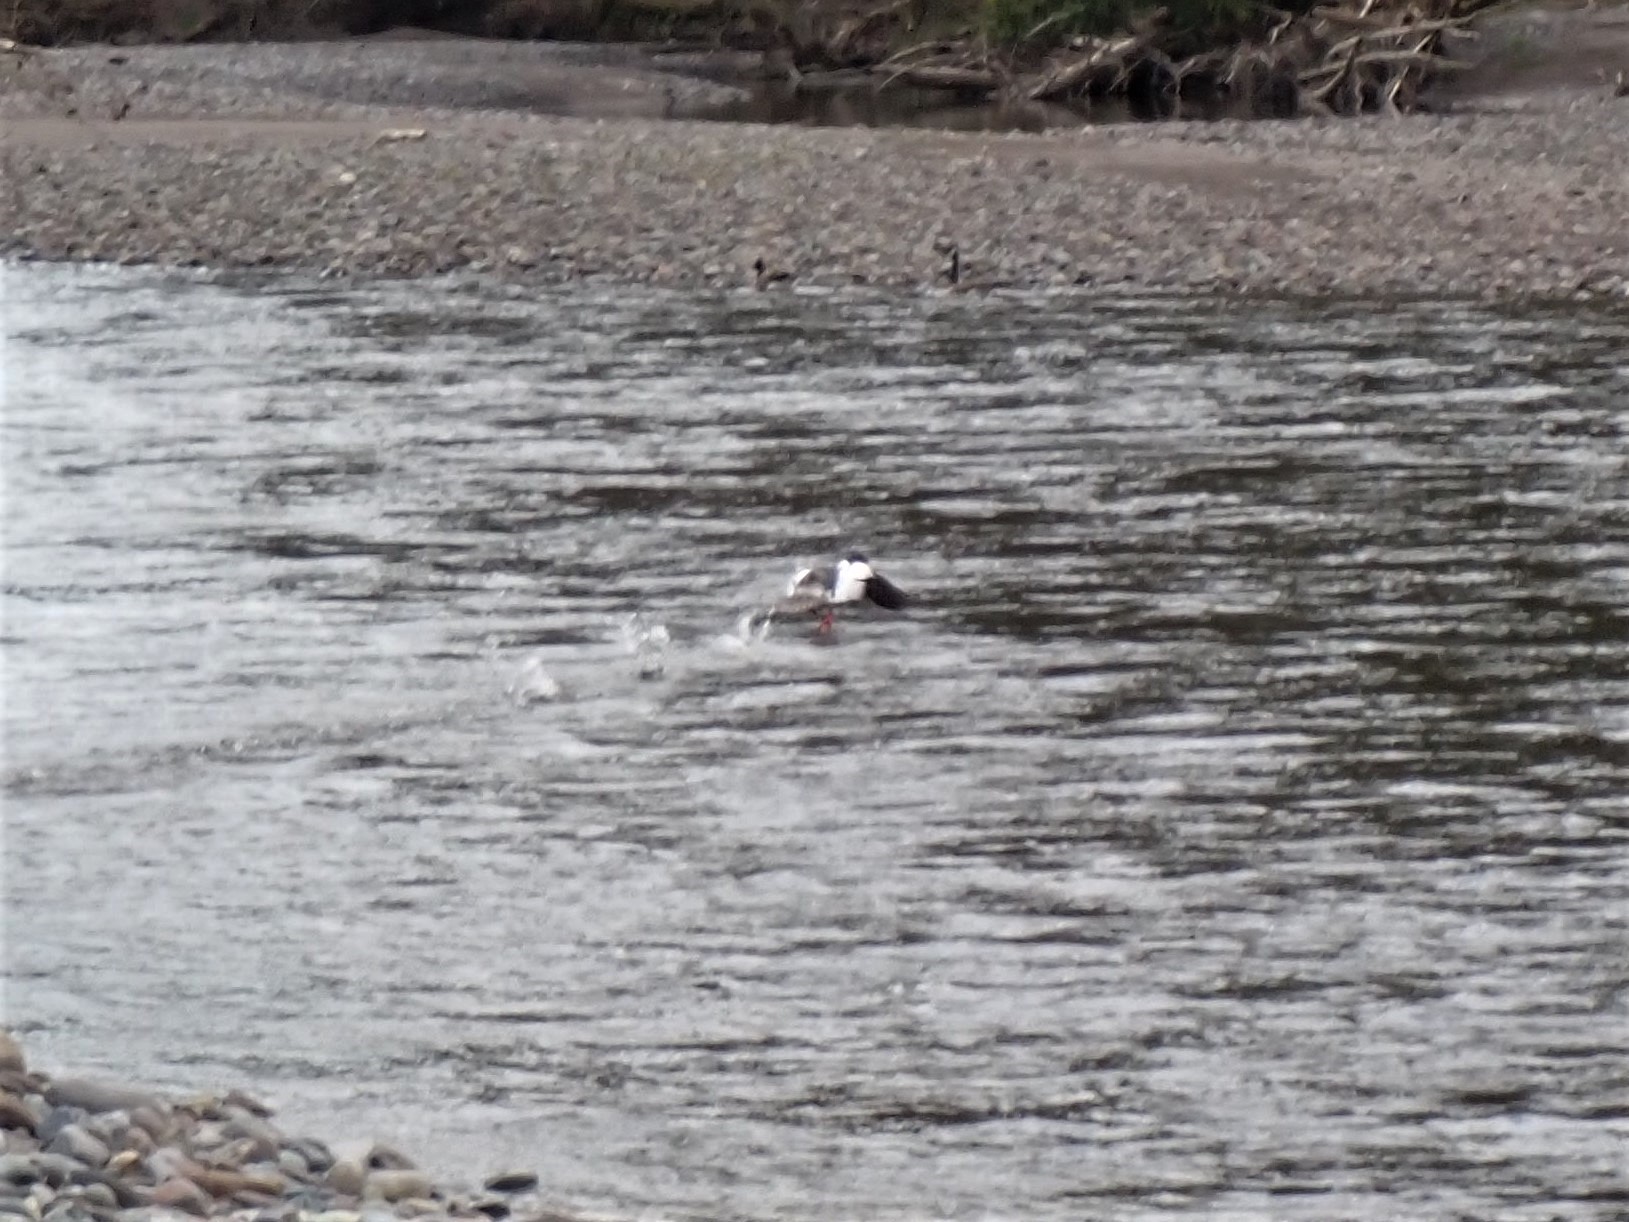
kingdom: Animalia
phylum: Chordata
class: Aves
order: Anseriformes
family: Anatidae
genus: Mergus
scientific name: Mergus merganser
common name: Common merganser
